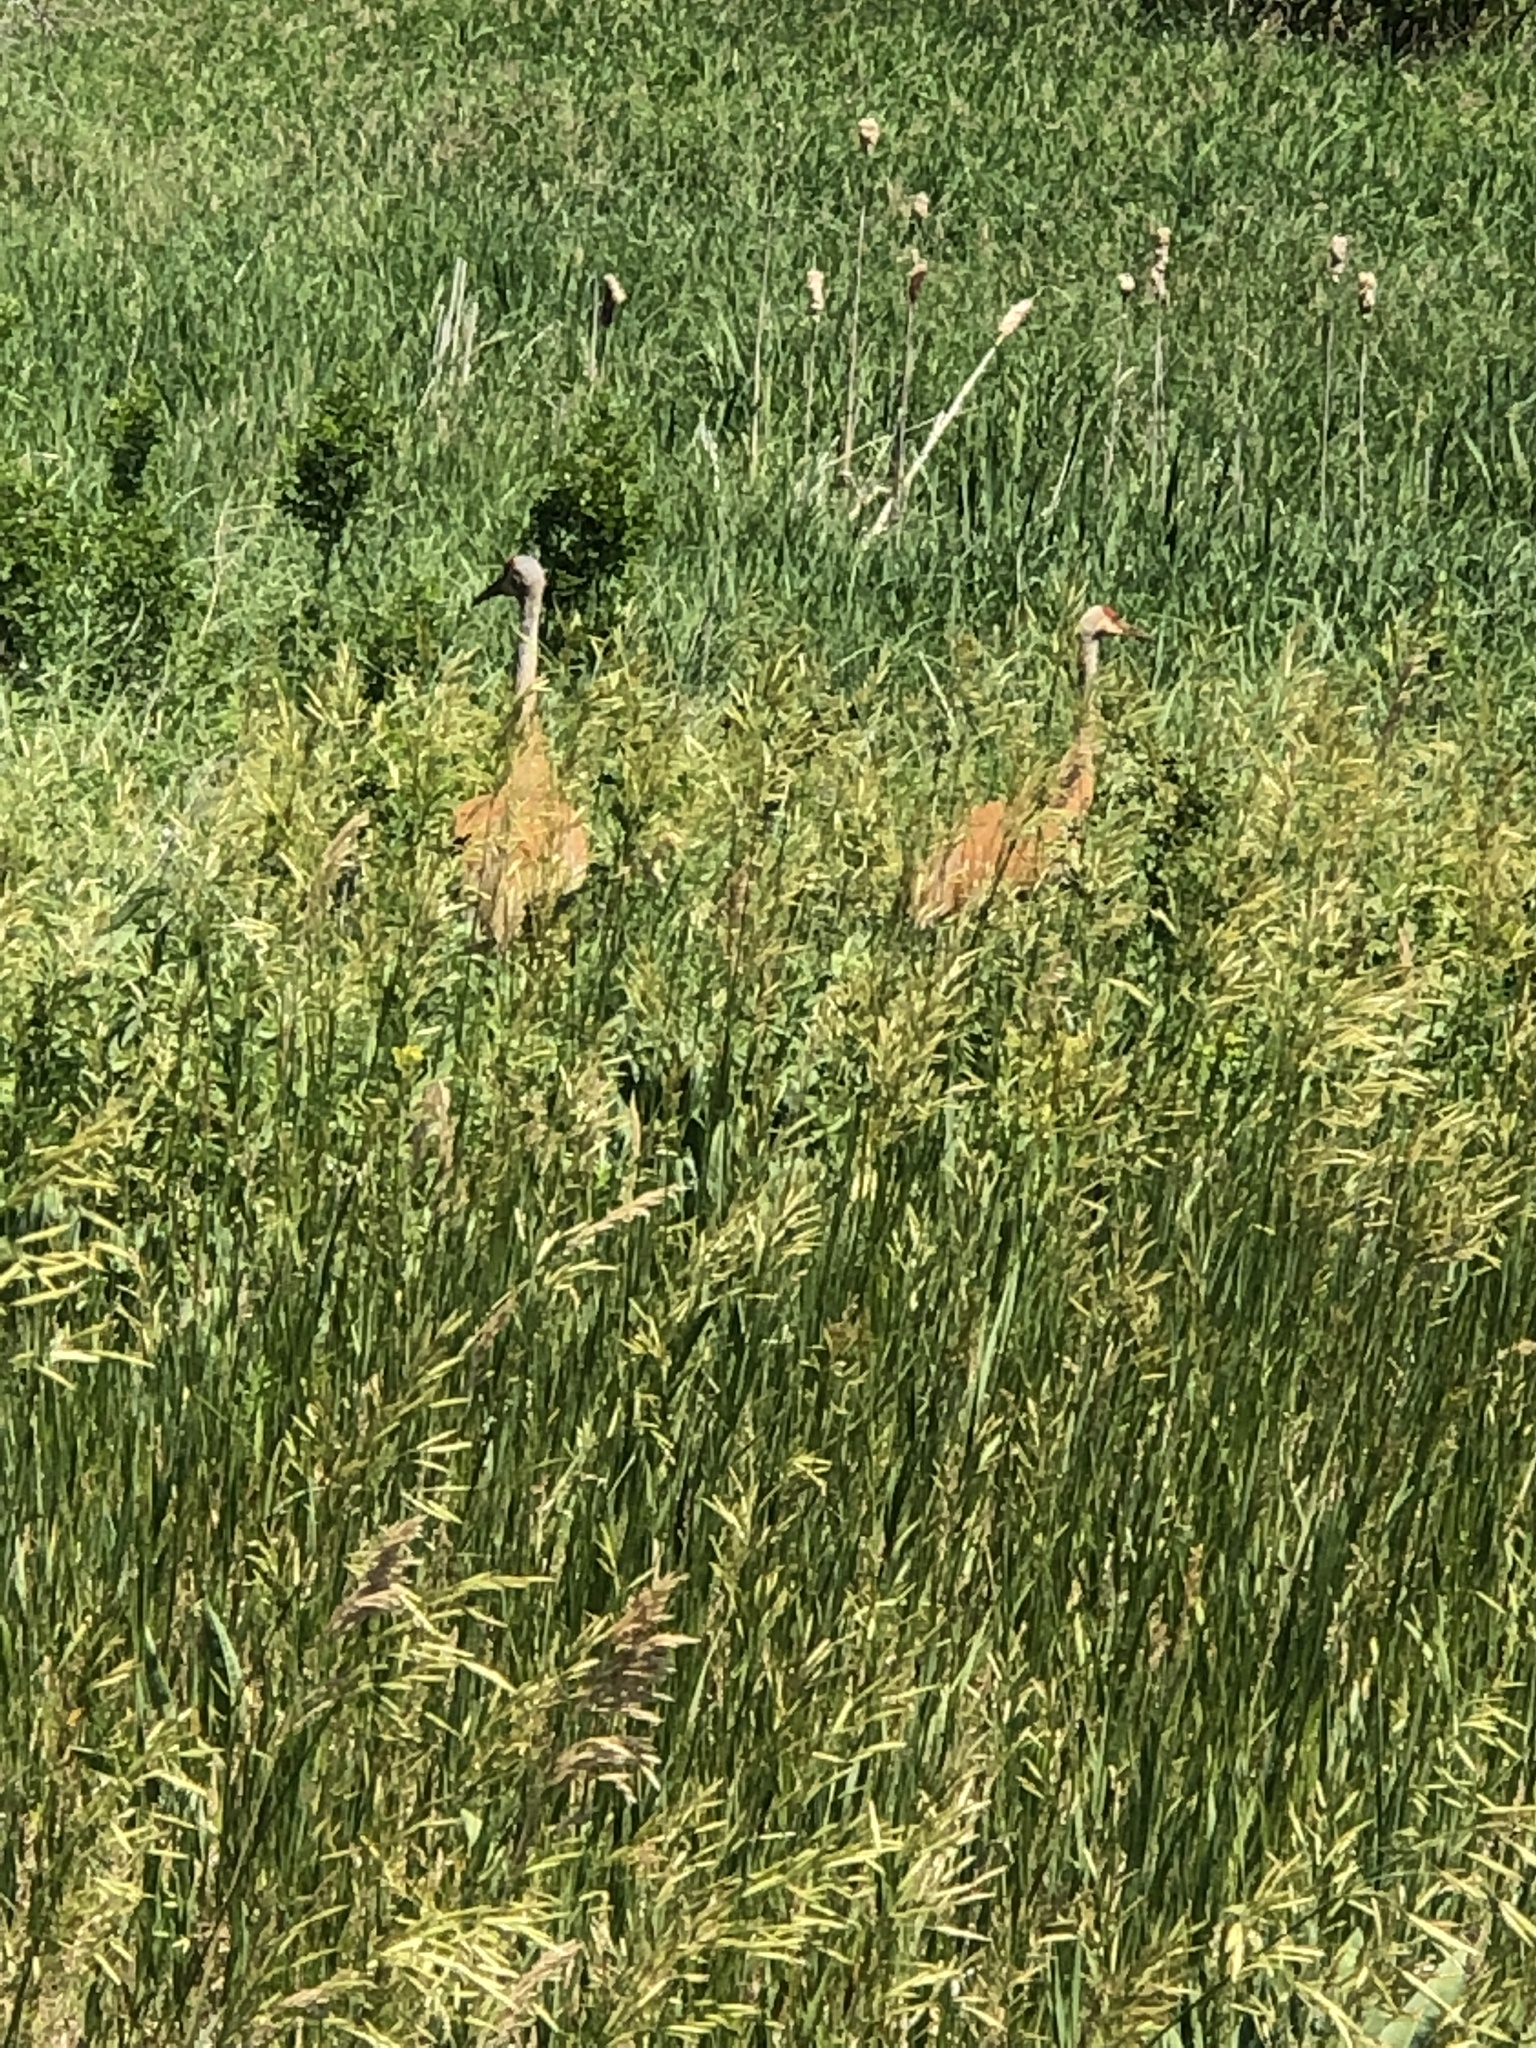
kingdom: Animalia
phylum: Chordata
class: Aves
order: Gruiformes
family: Gruidae
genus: Grus
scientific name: Grus canadensis
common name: Sandhill crane
